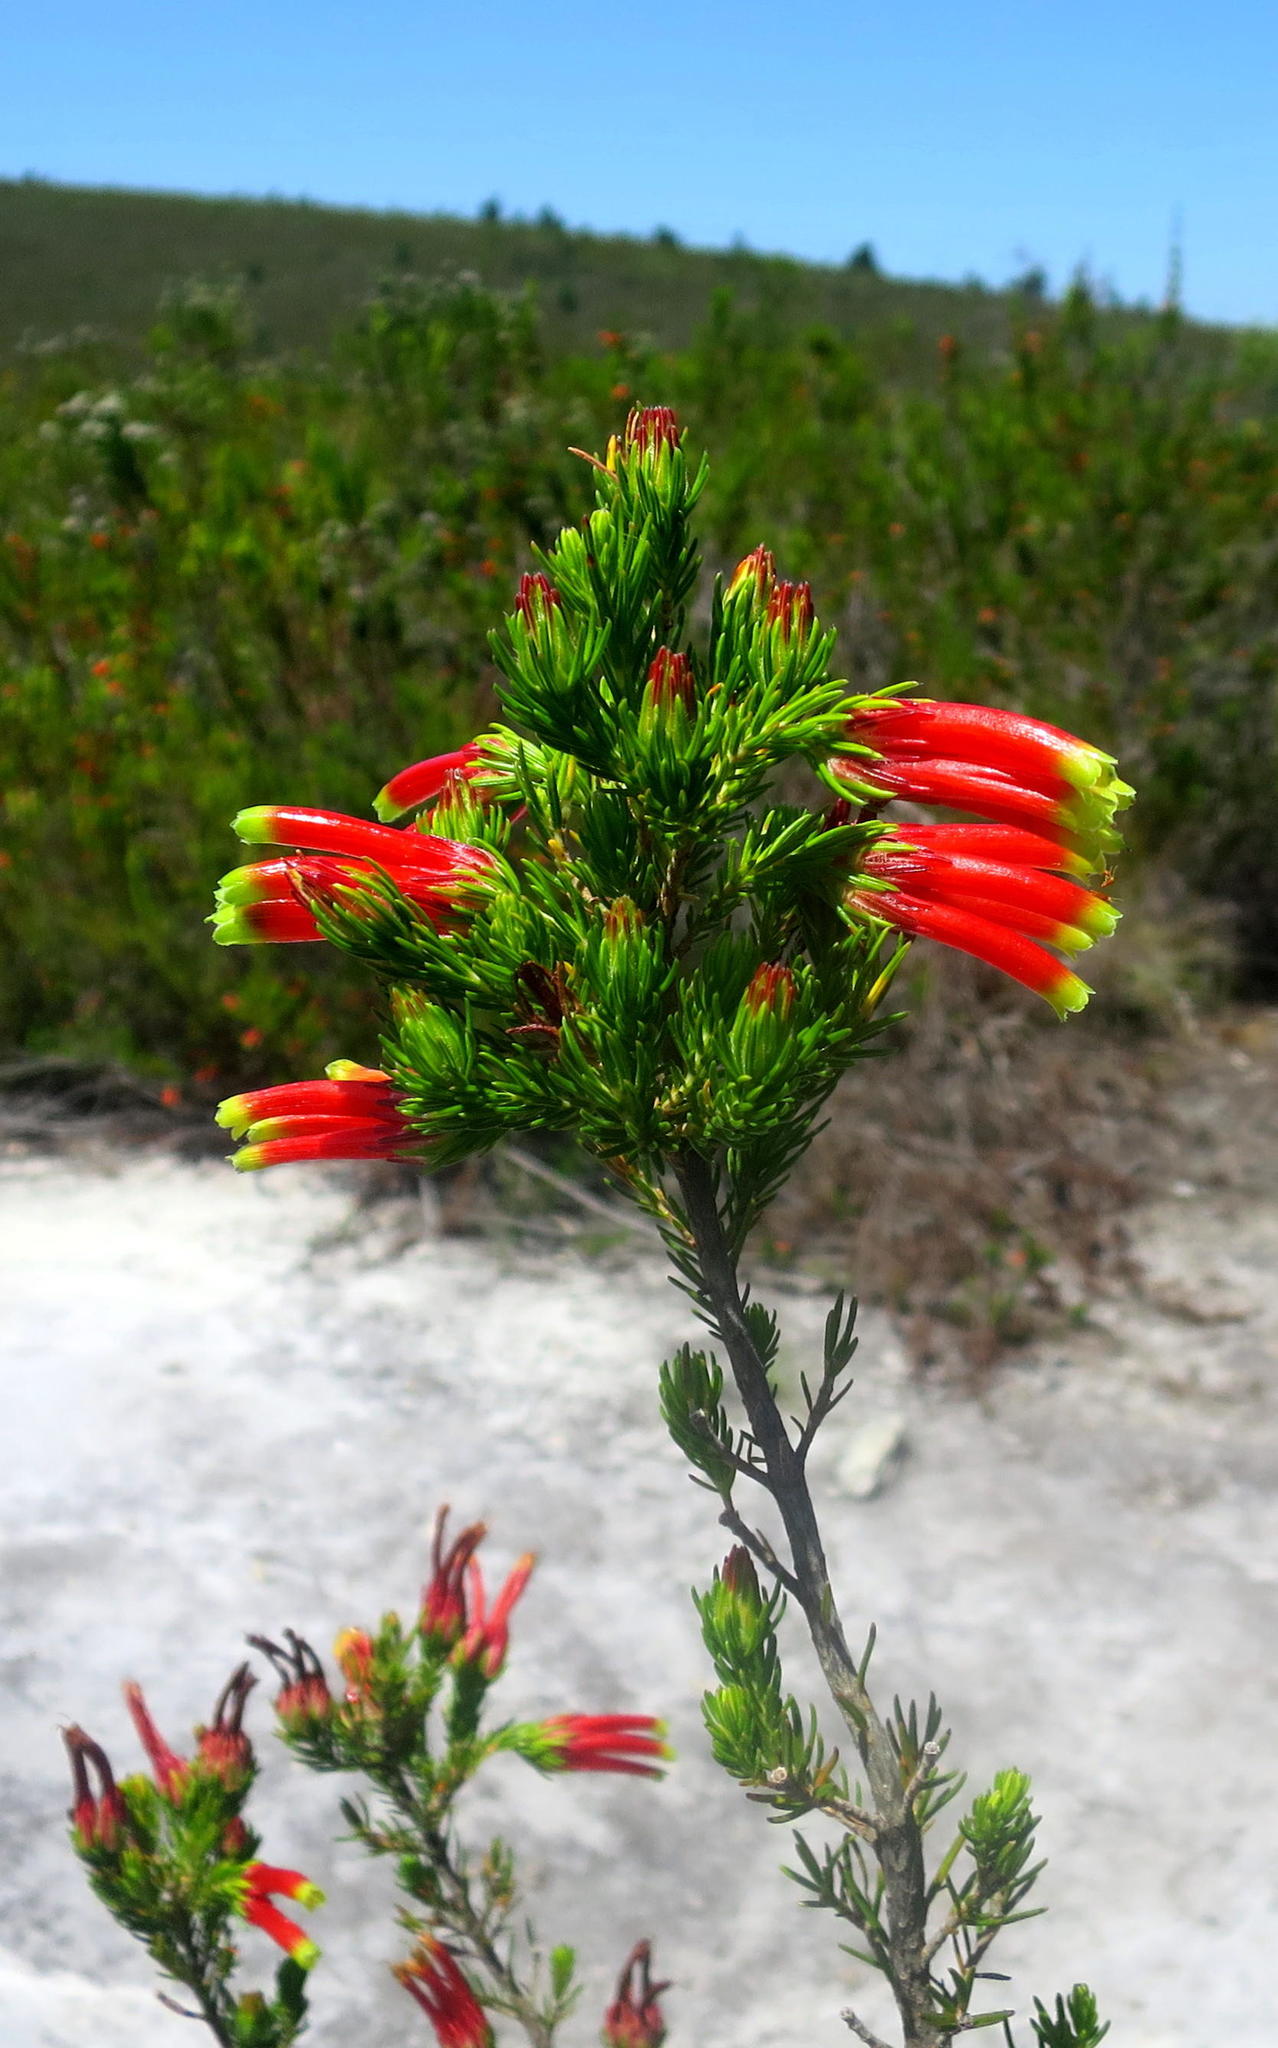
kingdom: Plantae
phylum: Tracheophyta
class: Magnoliopsida
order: Ericales
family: Ericaceae
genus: Erica
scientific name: Erica unicolor
